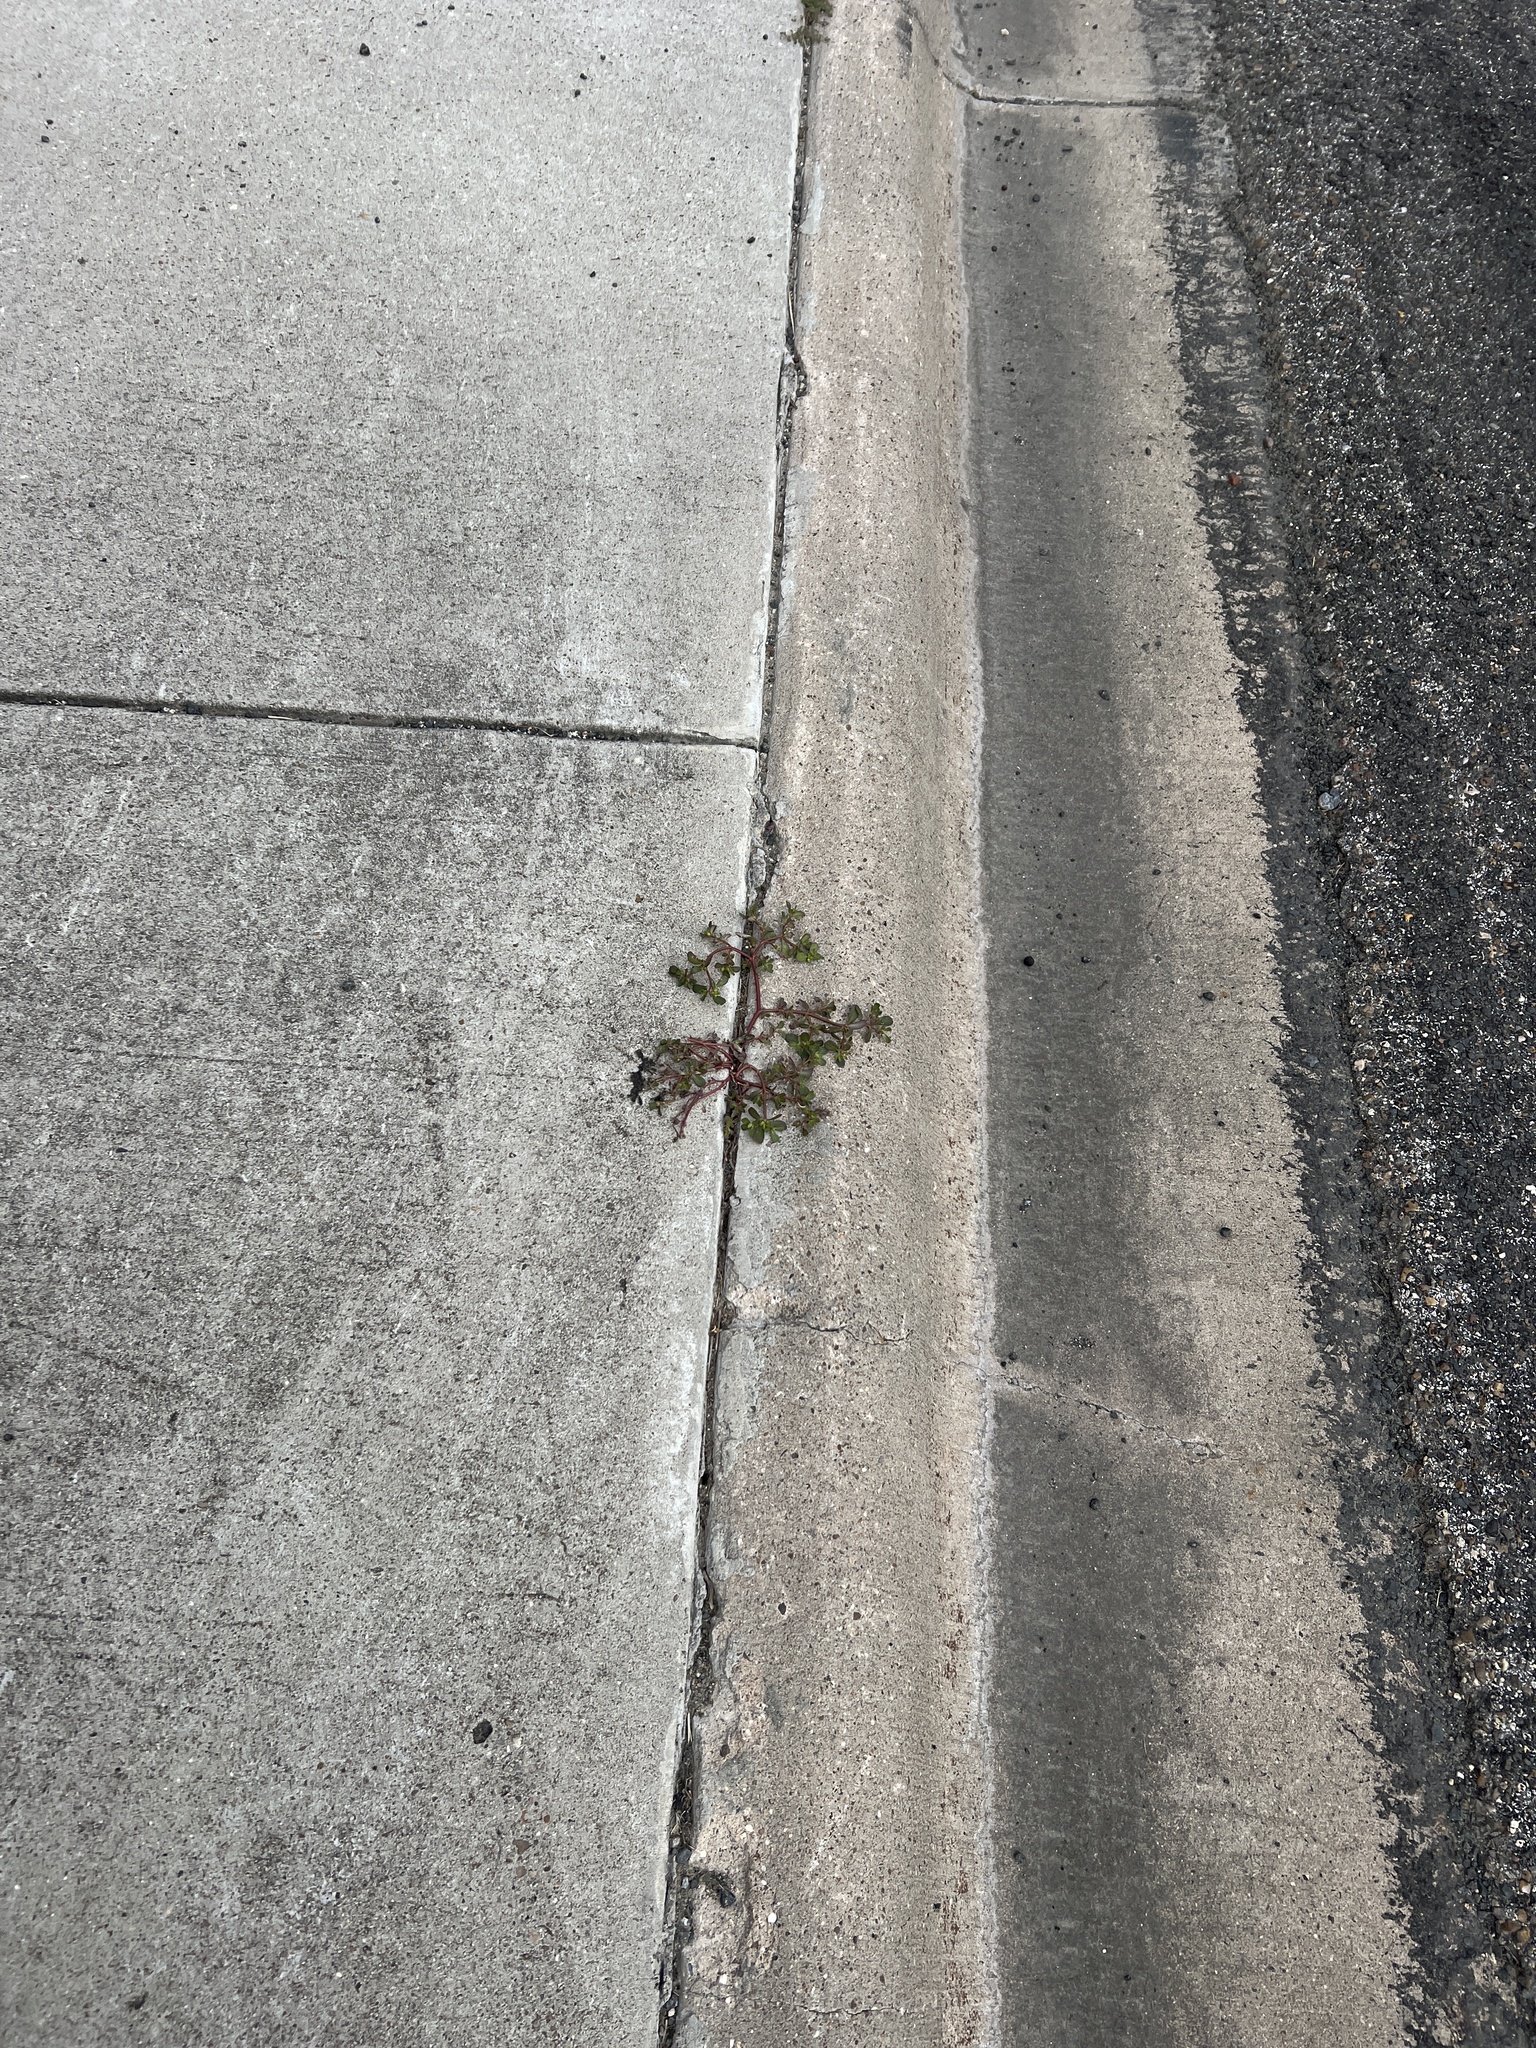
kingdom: Plantae
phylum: Tracheophyta
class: Magnoliopsida
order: Caryophyllales
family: Portulacaceae
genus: Portulaca
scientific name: Portulaca oleracea
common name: Common purslane
